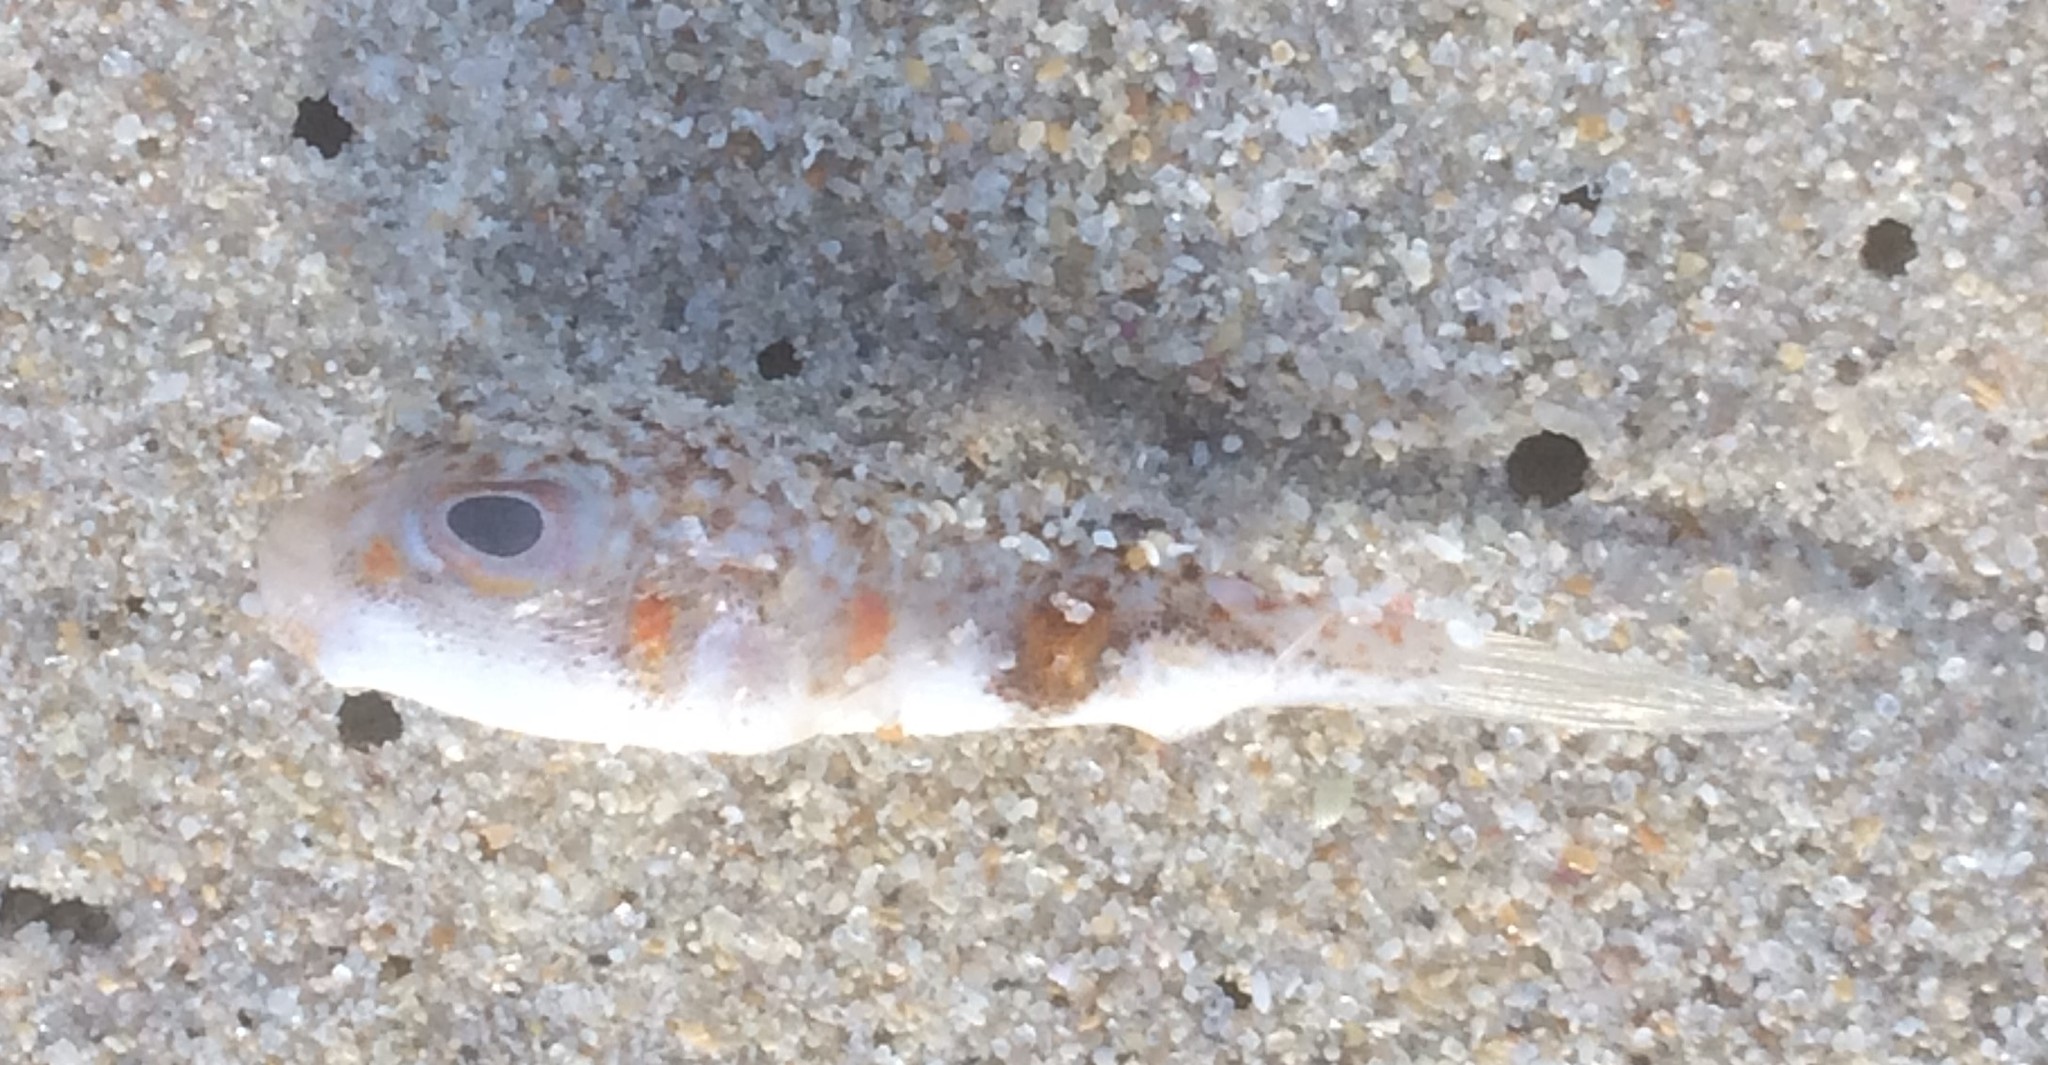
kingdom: Animalia
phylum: Chordata
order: Tetraodontiformes
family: Tetraodontidae
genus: Polyspina
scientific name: Polyspina piosae
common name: Orange-barred pufferfish
